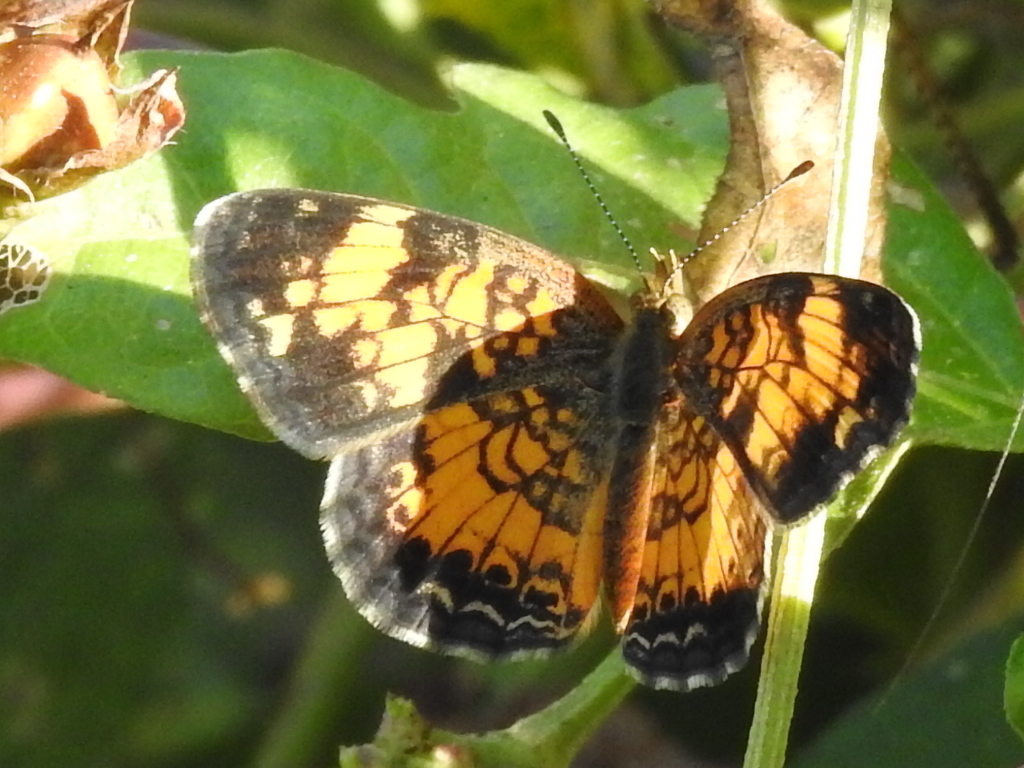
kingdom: Animalia
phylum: Arthropoda
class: Insecta
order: Lepidoptera
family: Nymphalidae
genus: Phyciodes
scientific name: Phyciodes tharos
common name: Pearl crescent
